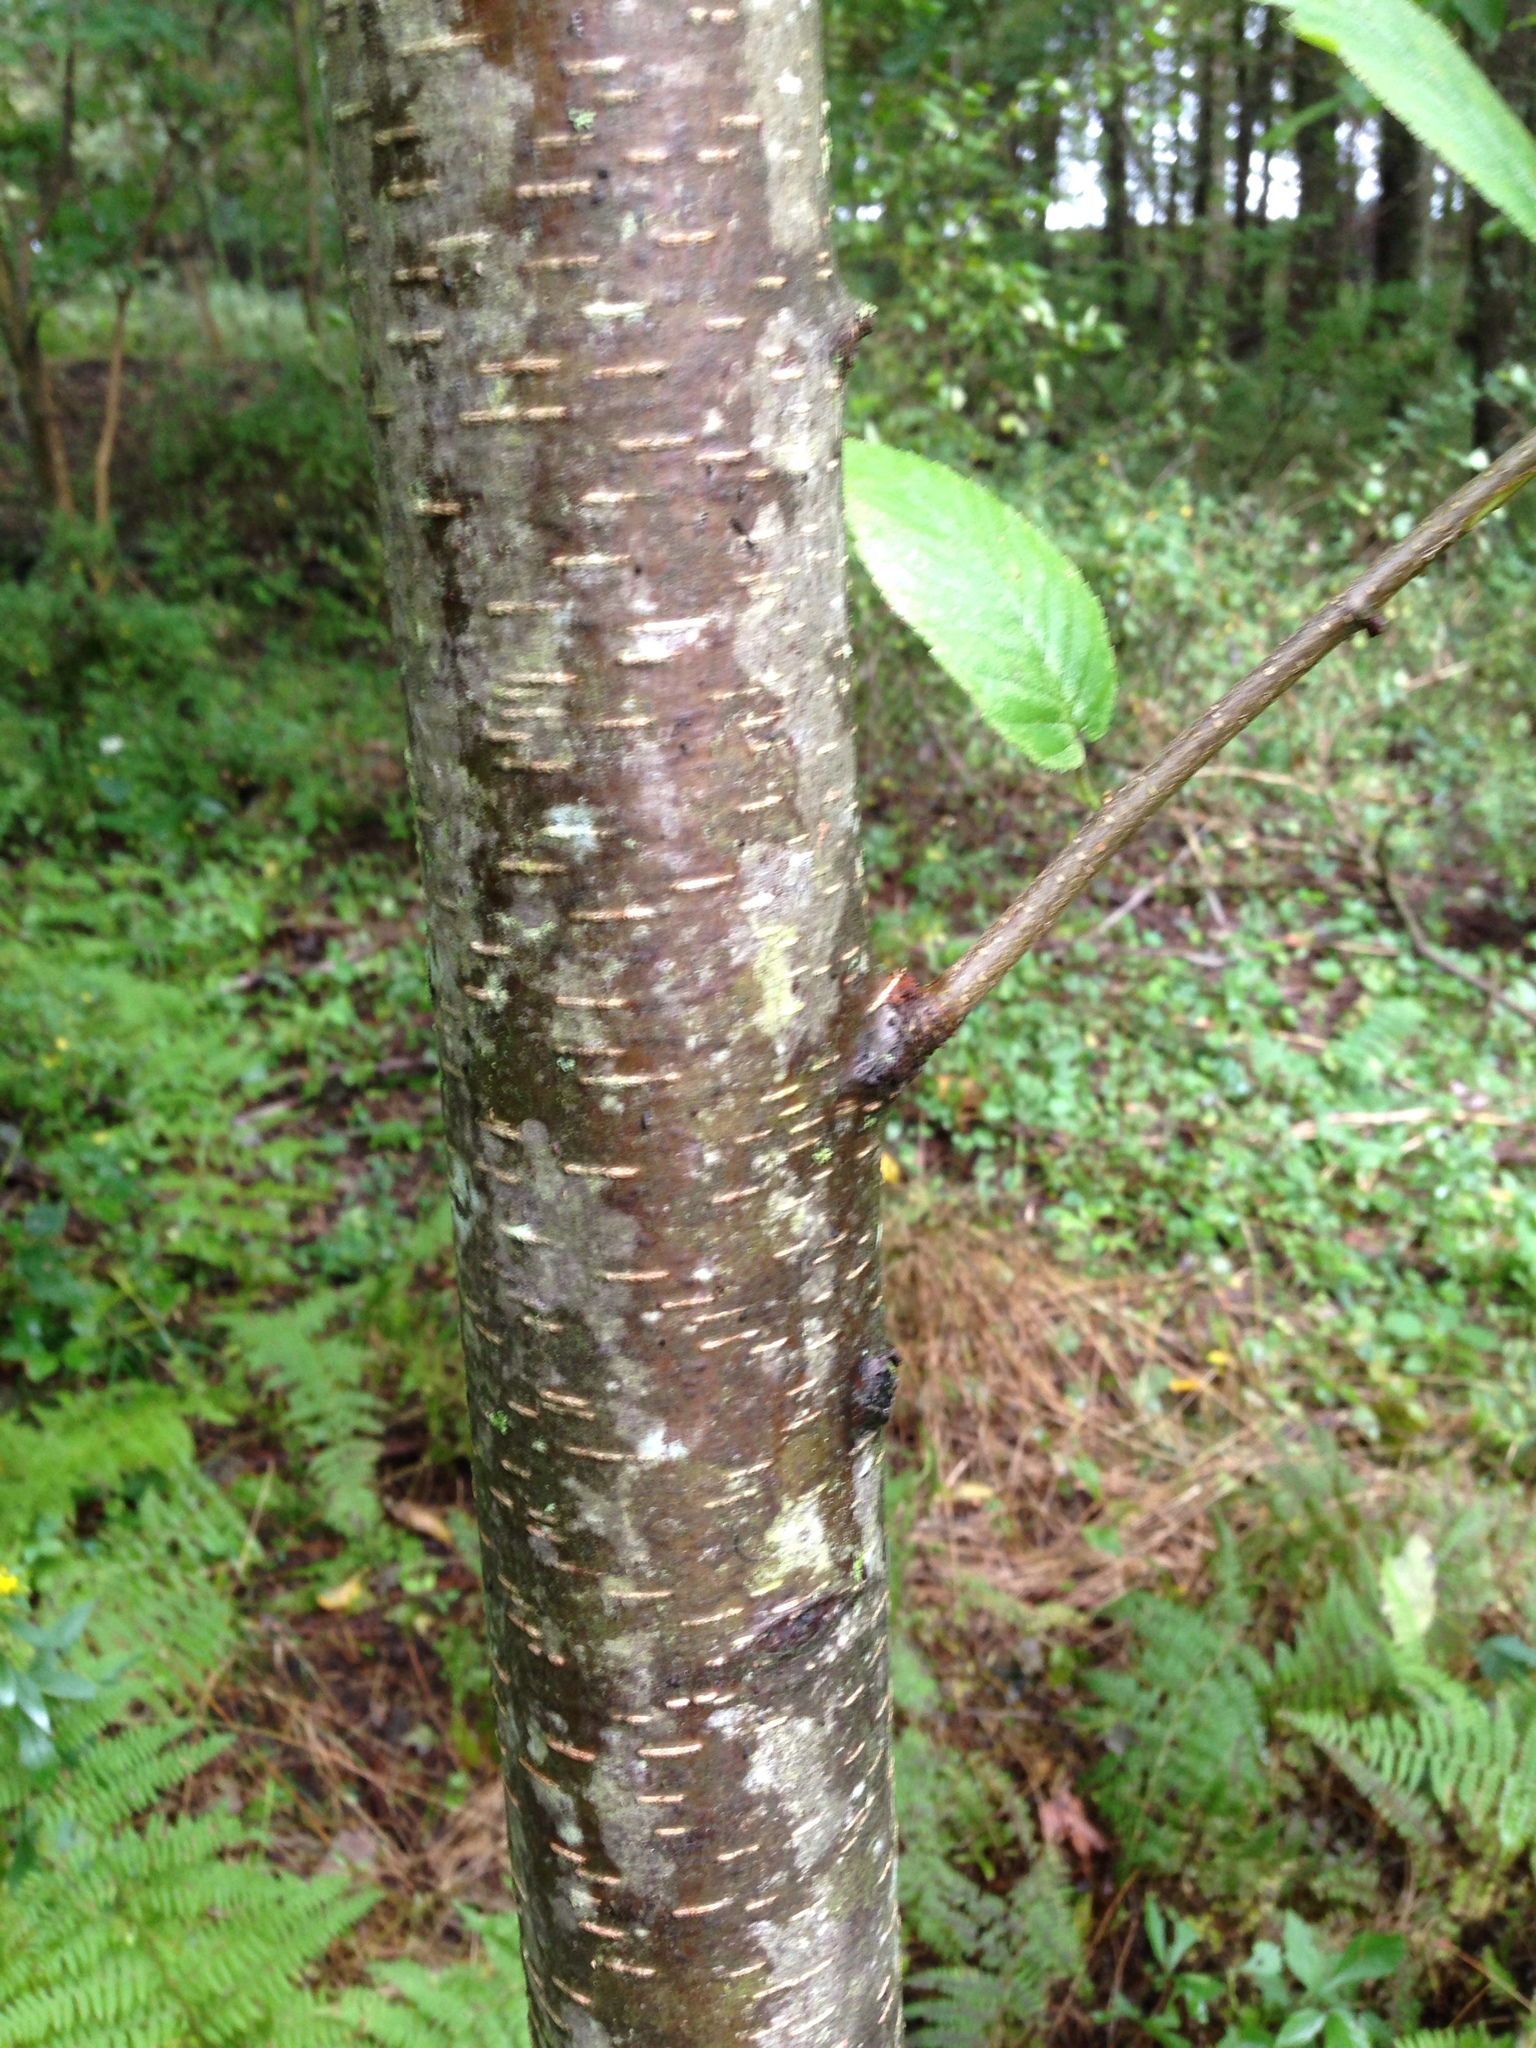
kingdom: Plantae
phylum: Tracheophyta
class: Magnoliopsida
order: Fagales
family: Betulaceae
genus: Betula
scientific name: Betula lenta
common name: Black birch
